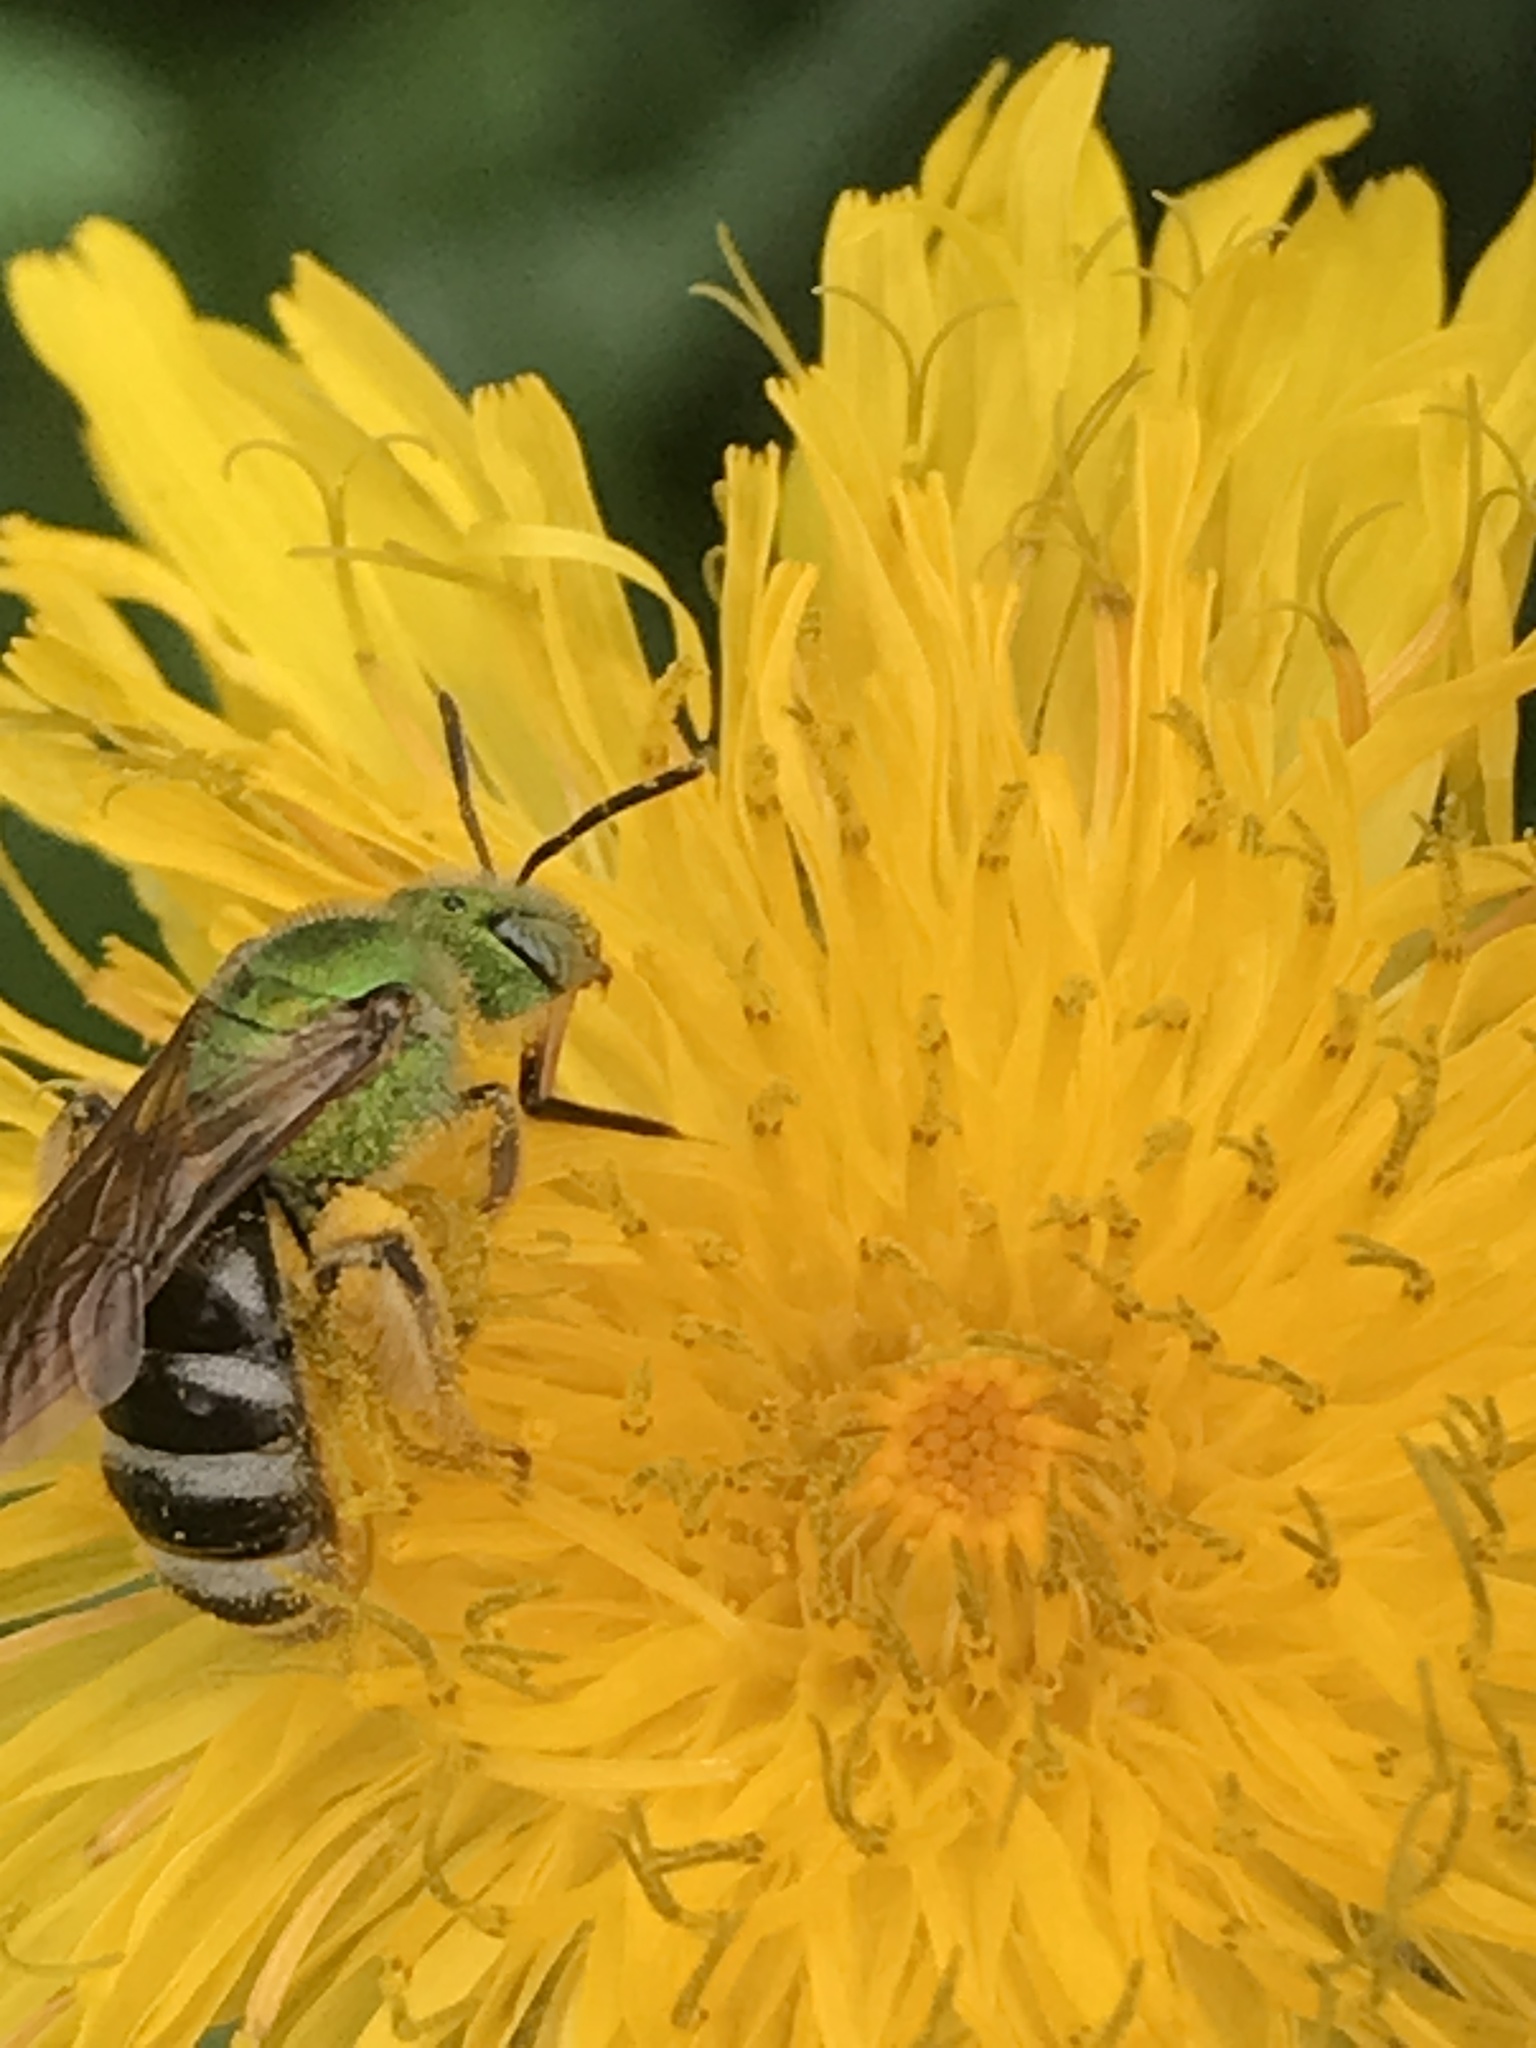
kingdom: Animalia
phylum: Arthropoda
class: Insecta
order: Hymenoptera
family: Halictidae
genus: Agapostemon
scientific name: Agapostemon virescens
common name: Bicolored striped sweat bee
